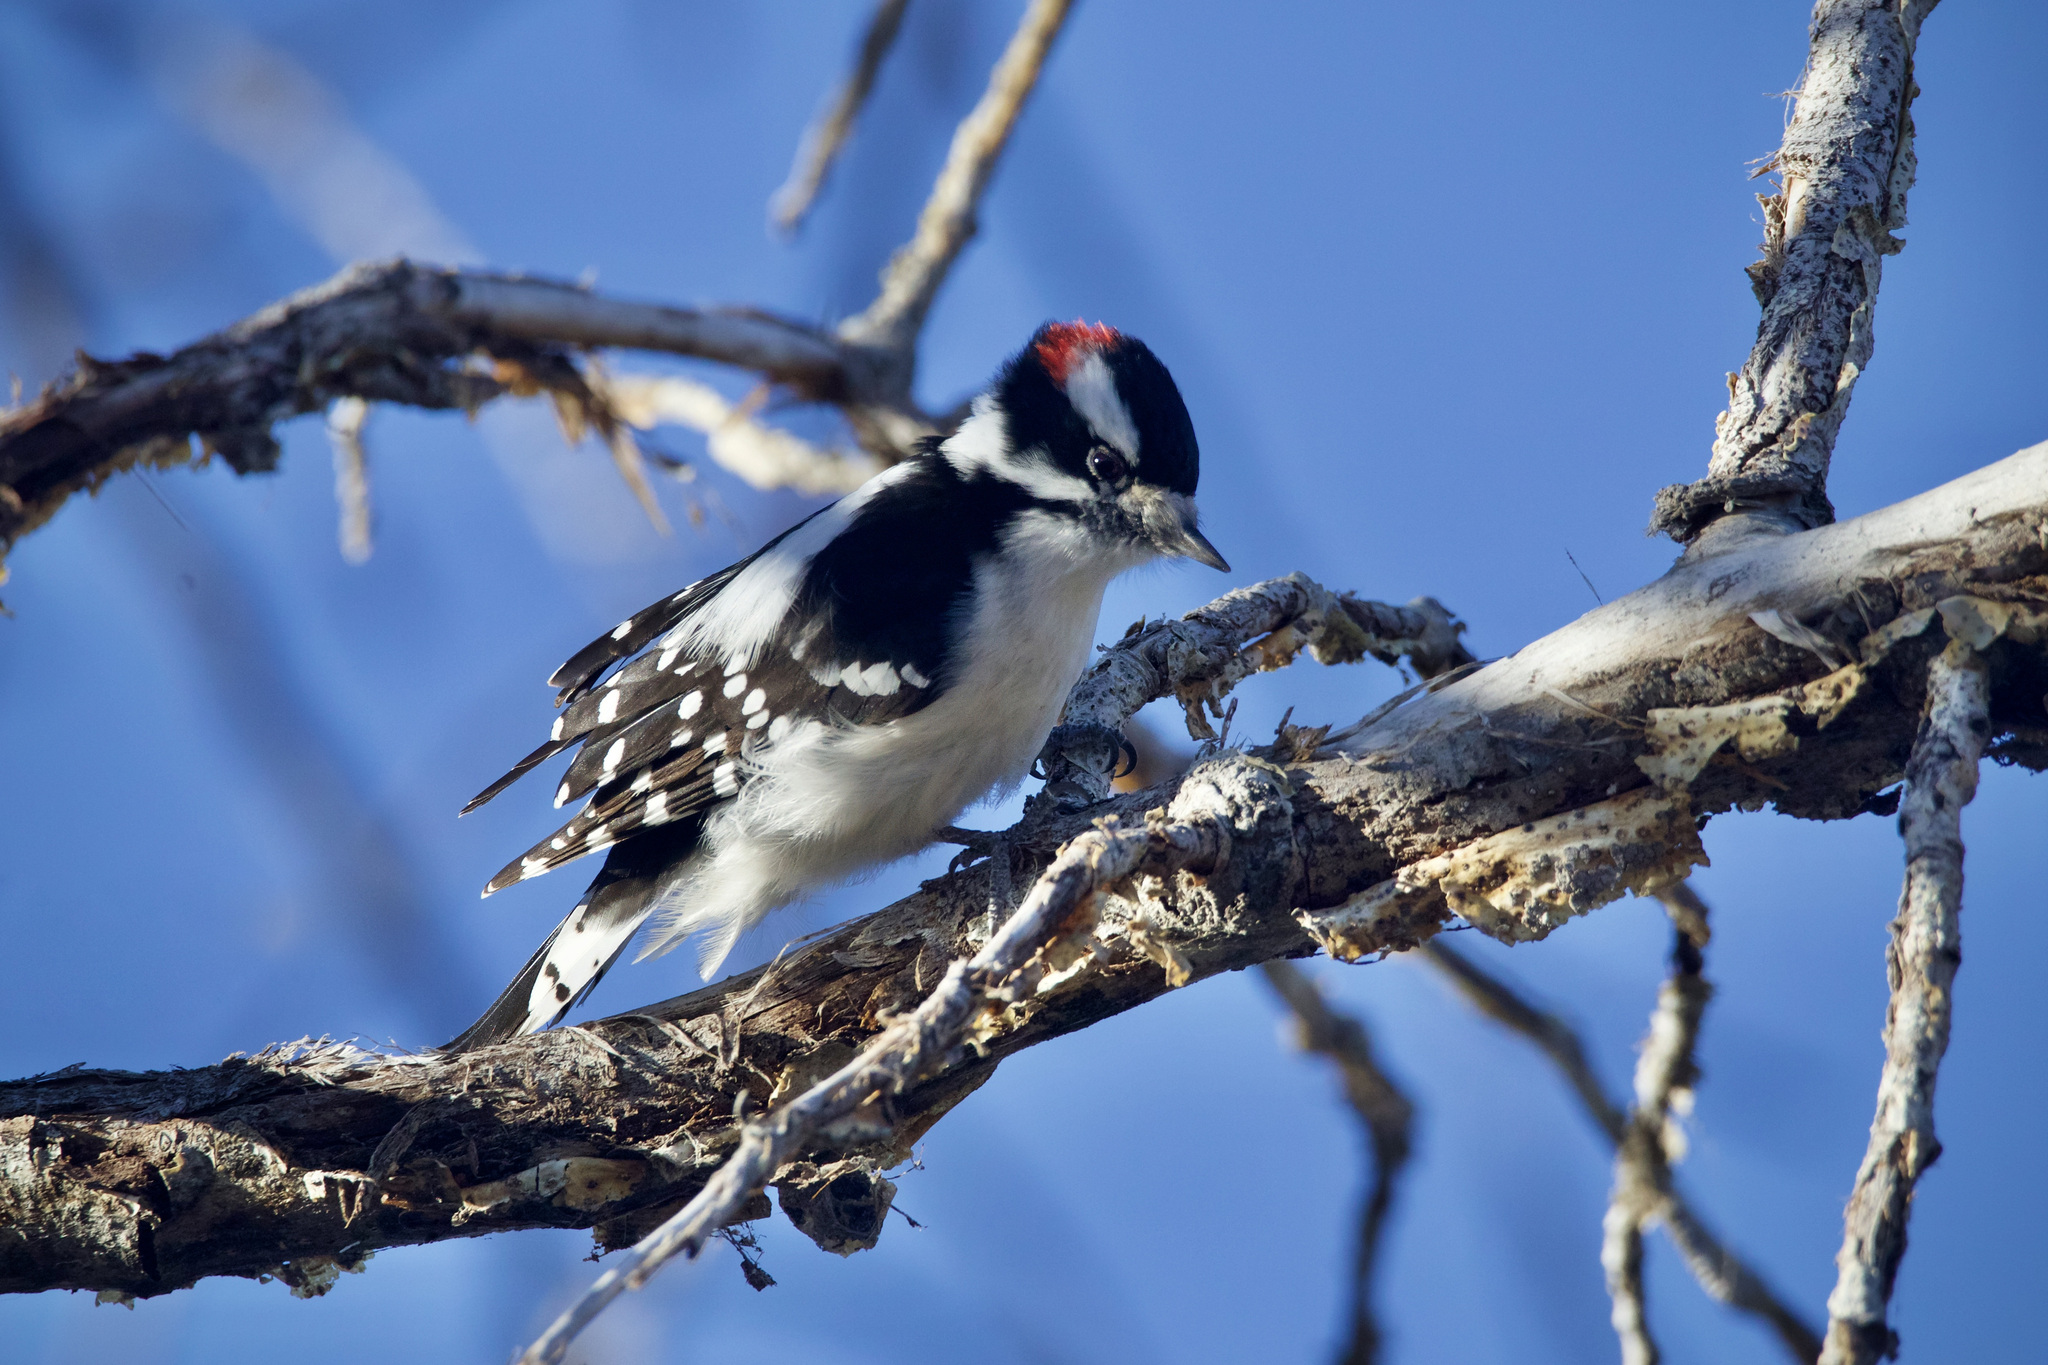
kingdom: Animalia
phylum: Chordata
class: Aves
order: Piciformes
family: Picidae
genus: Dryobates
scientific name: Dryobates pubescens
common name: Downy woodpecker
